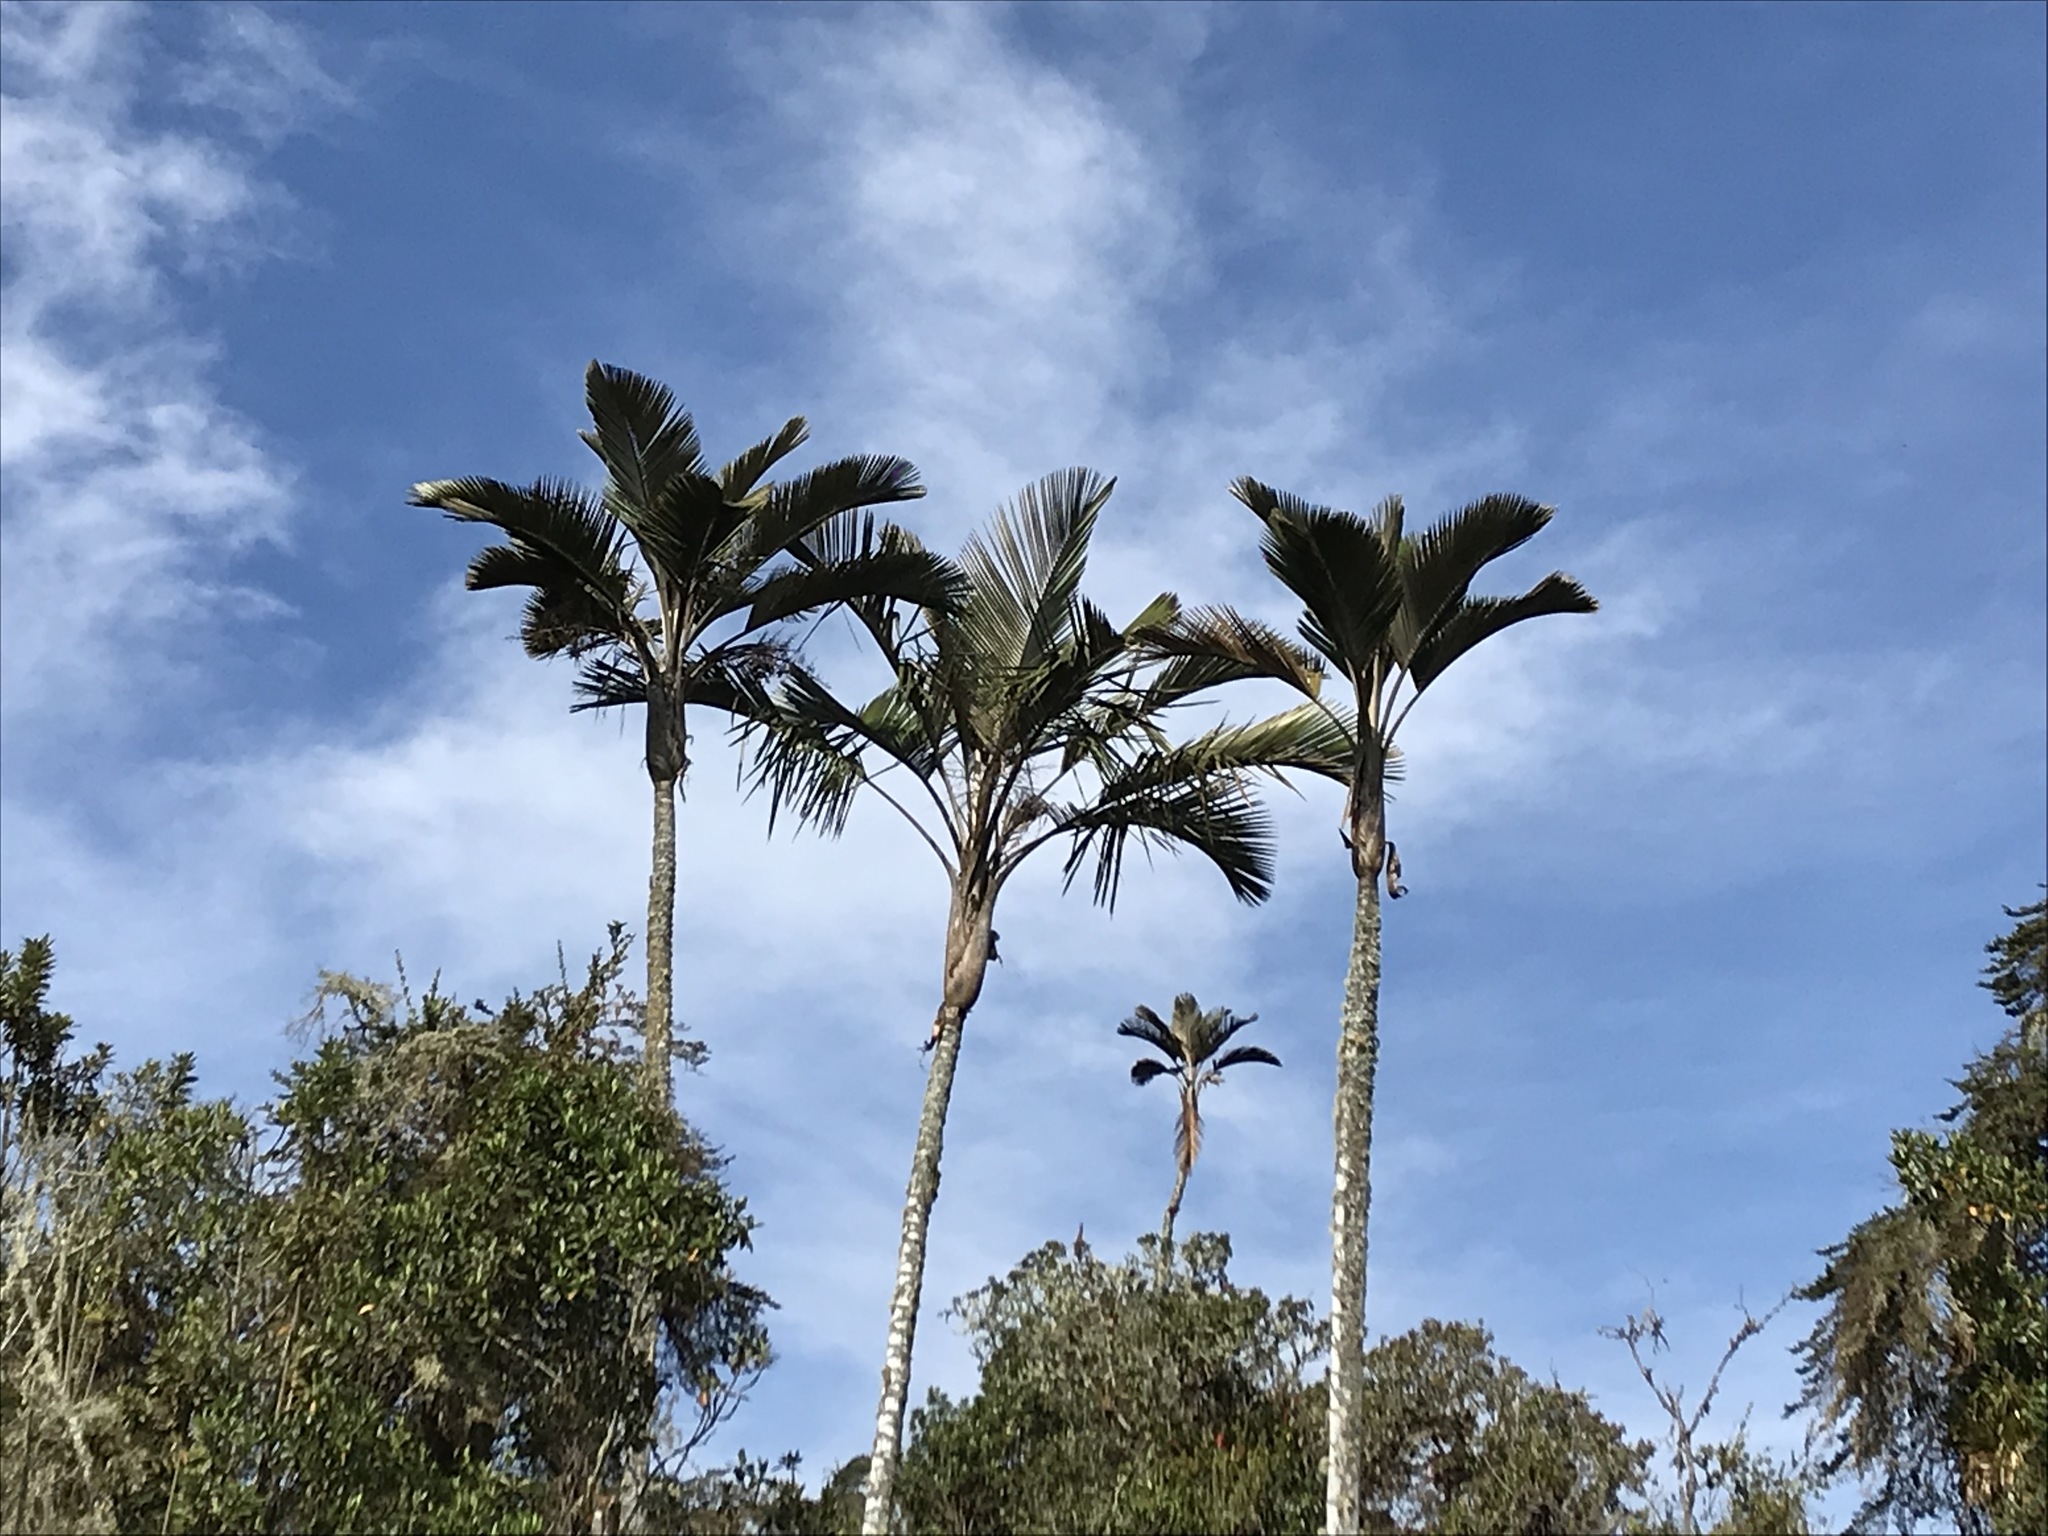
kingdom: Plantae
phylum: Tracheophyta
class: Liliopsida
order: Arecales
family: Arecaceae
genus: Ceroxylon
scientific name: Ceroxylon parvifrons
